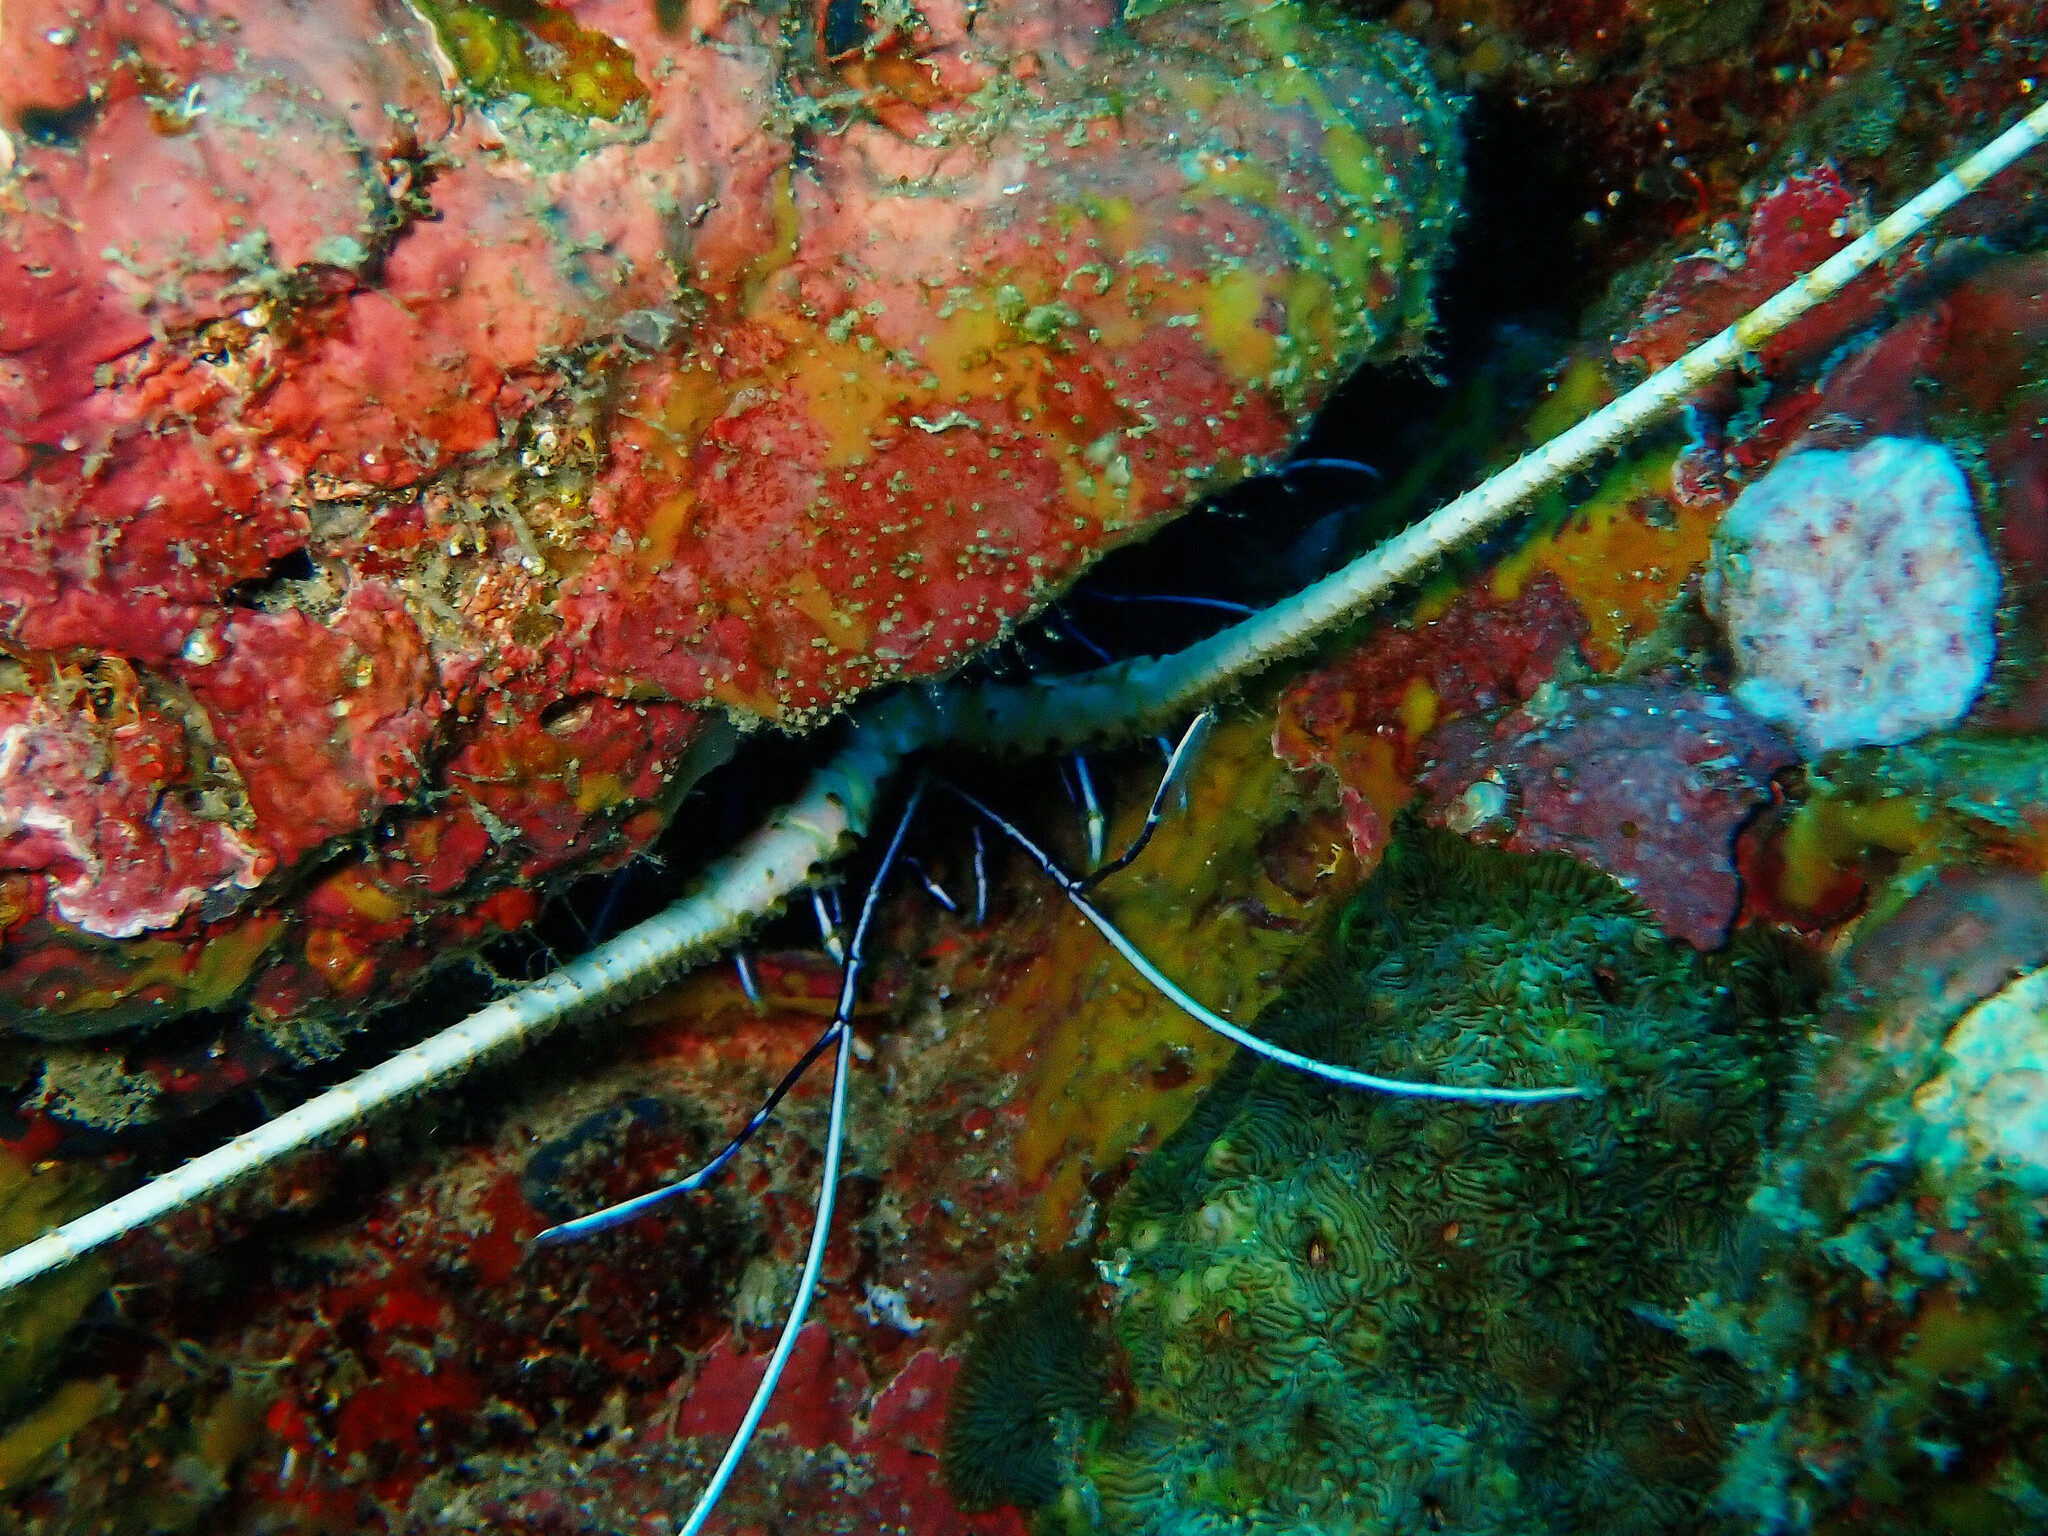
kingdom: Animalia
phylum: Arthropoda
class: Malacostraca
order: Decapoda
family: Palinuridae
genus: Panulirus
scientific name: Panulirus versicolor
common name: Painted spiny lobster
